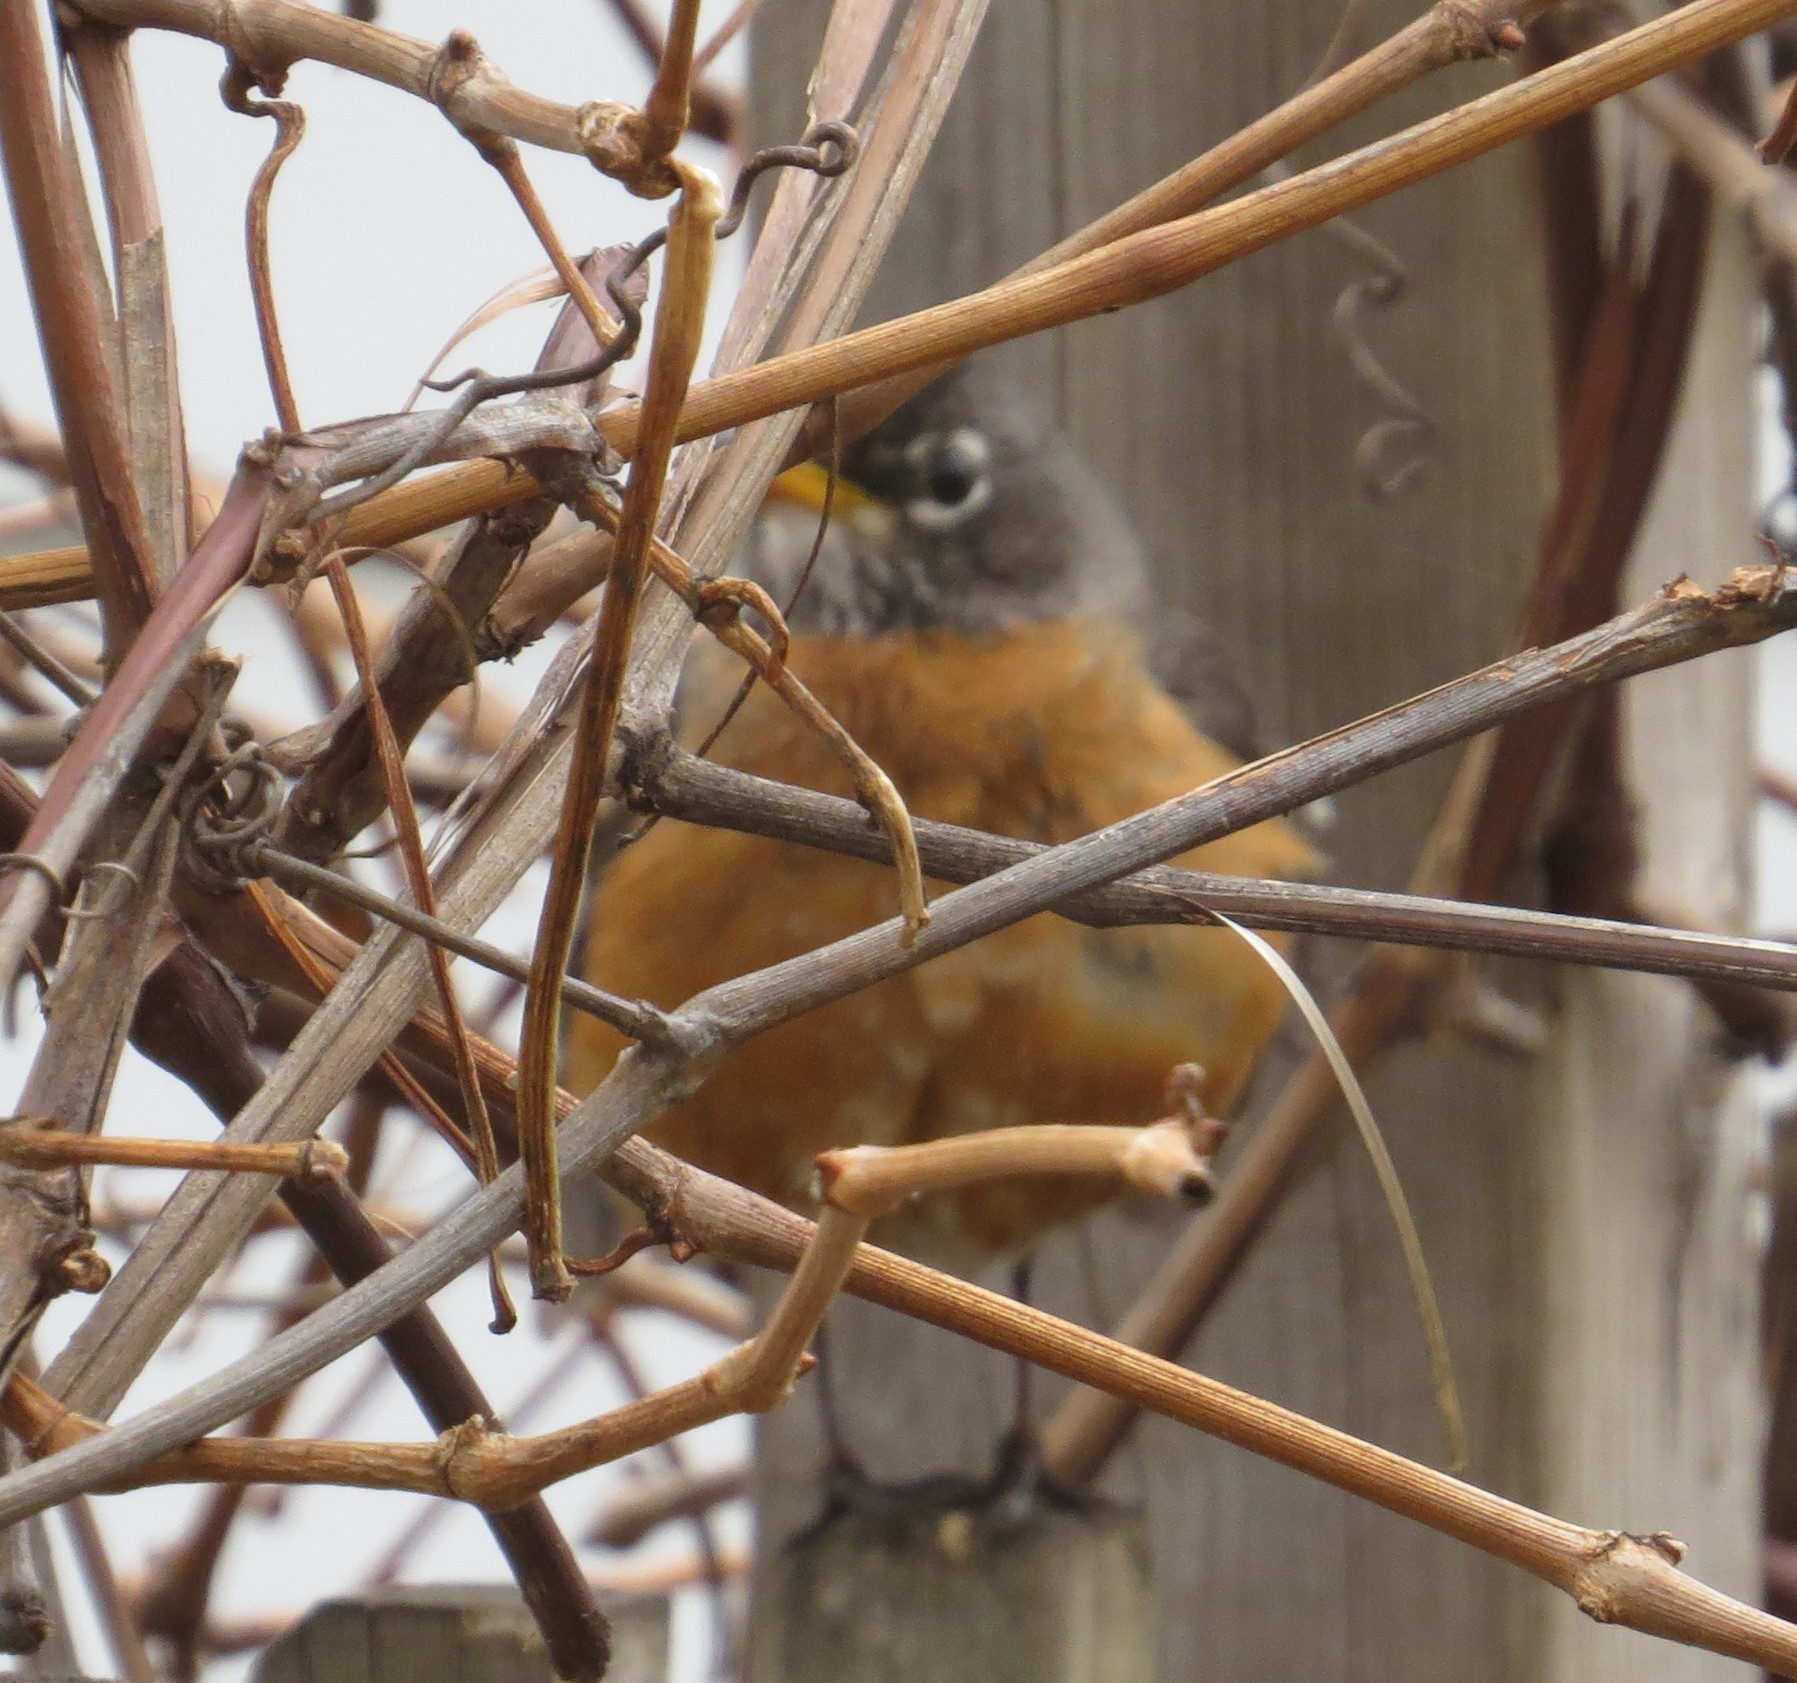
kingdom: Animalia
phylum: Chordata
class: Aves
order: Passeriformes
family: Turdidae
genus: Turdus
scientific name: Turdus migratorius
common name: American robin
